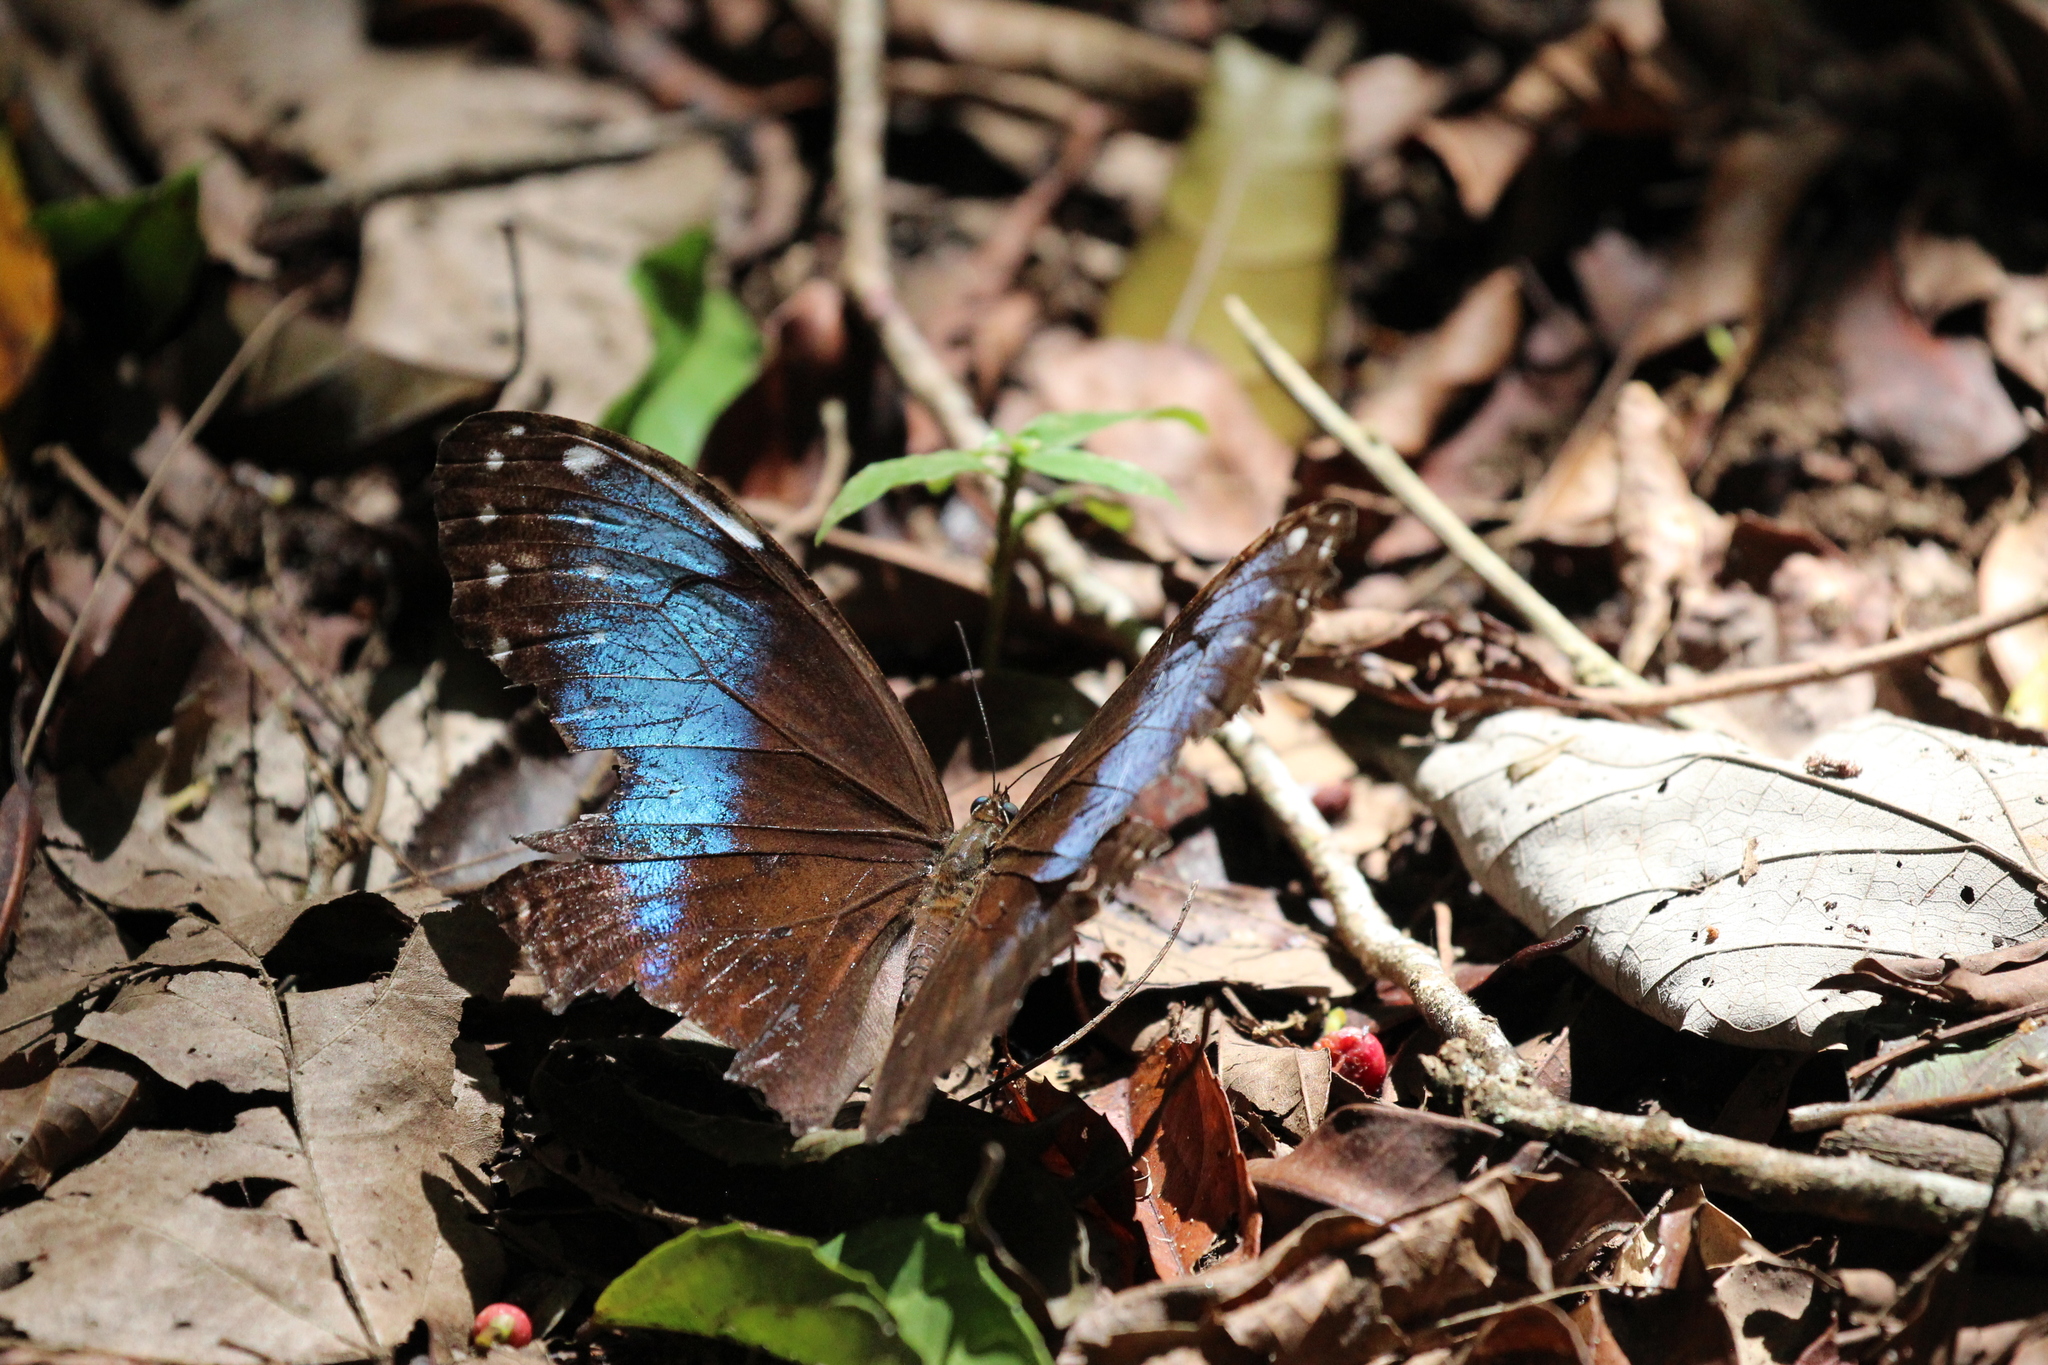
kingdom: Animalia
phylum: Arthropoda
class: Insecta
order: Lepidoptera
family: Nymphalidae
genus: Morpho
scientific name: Morpho helenor
